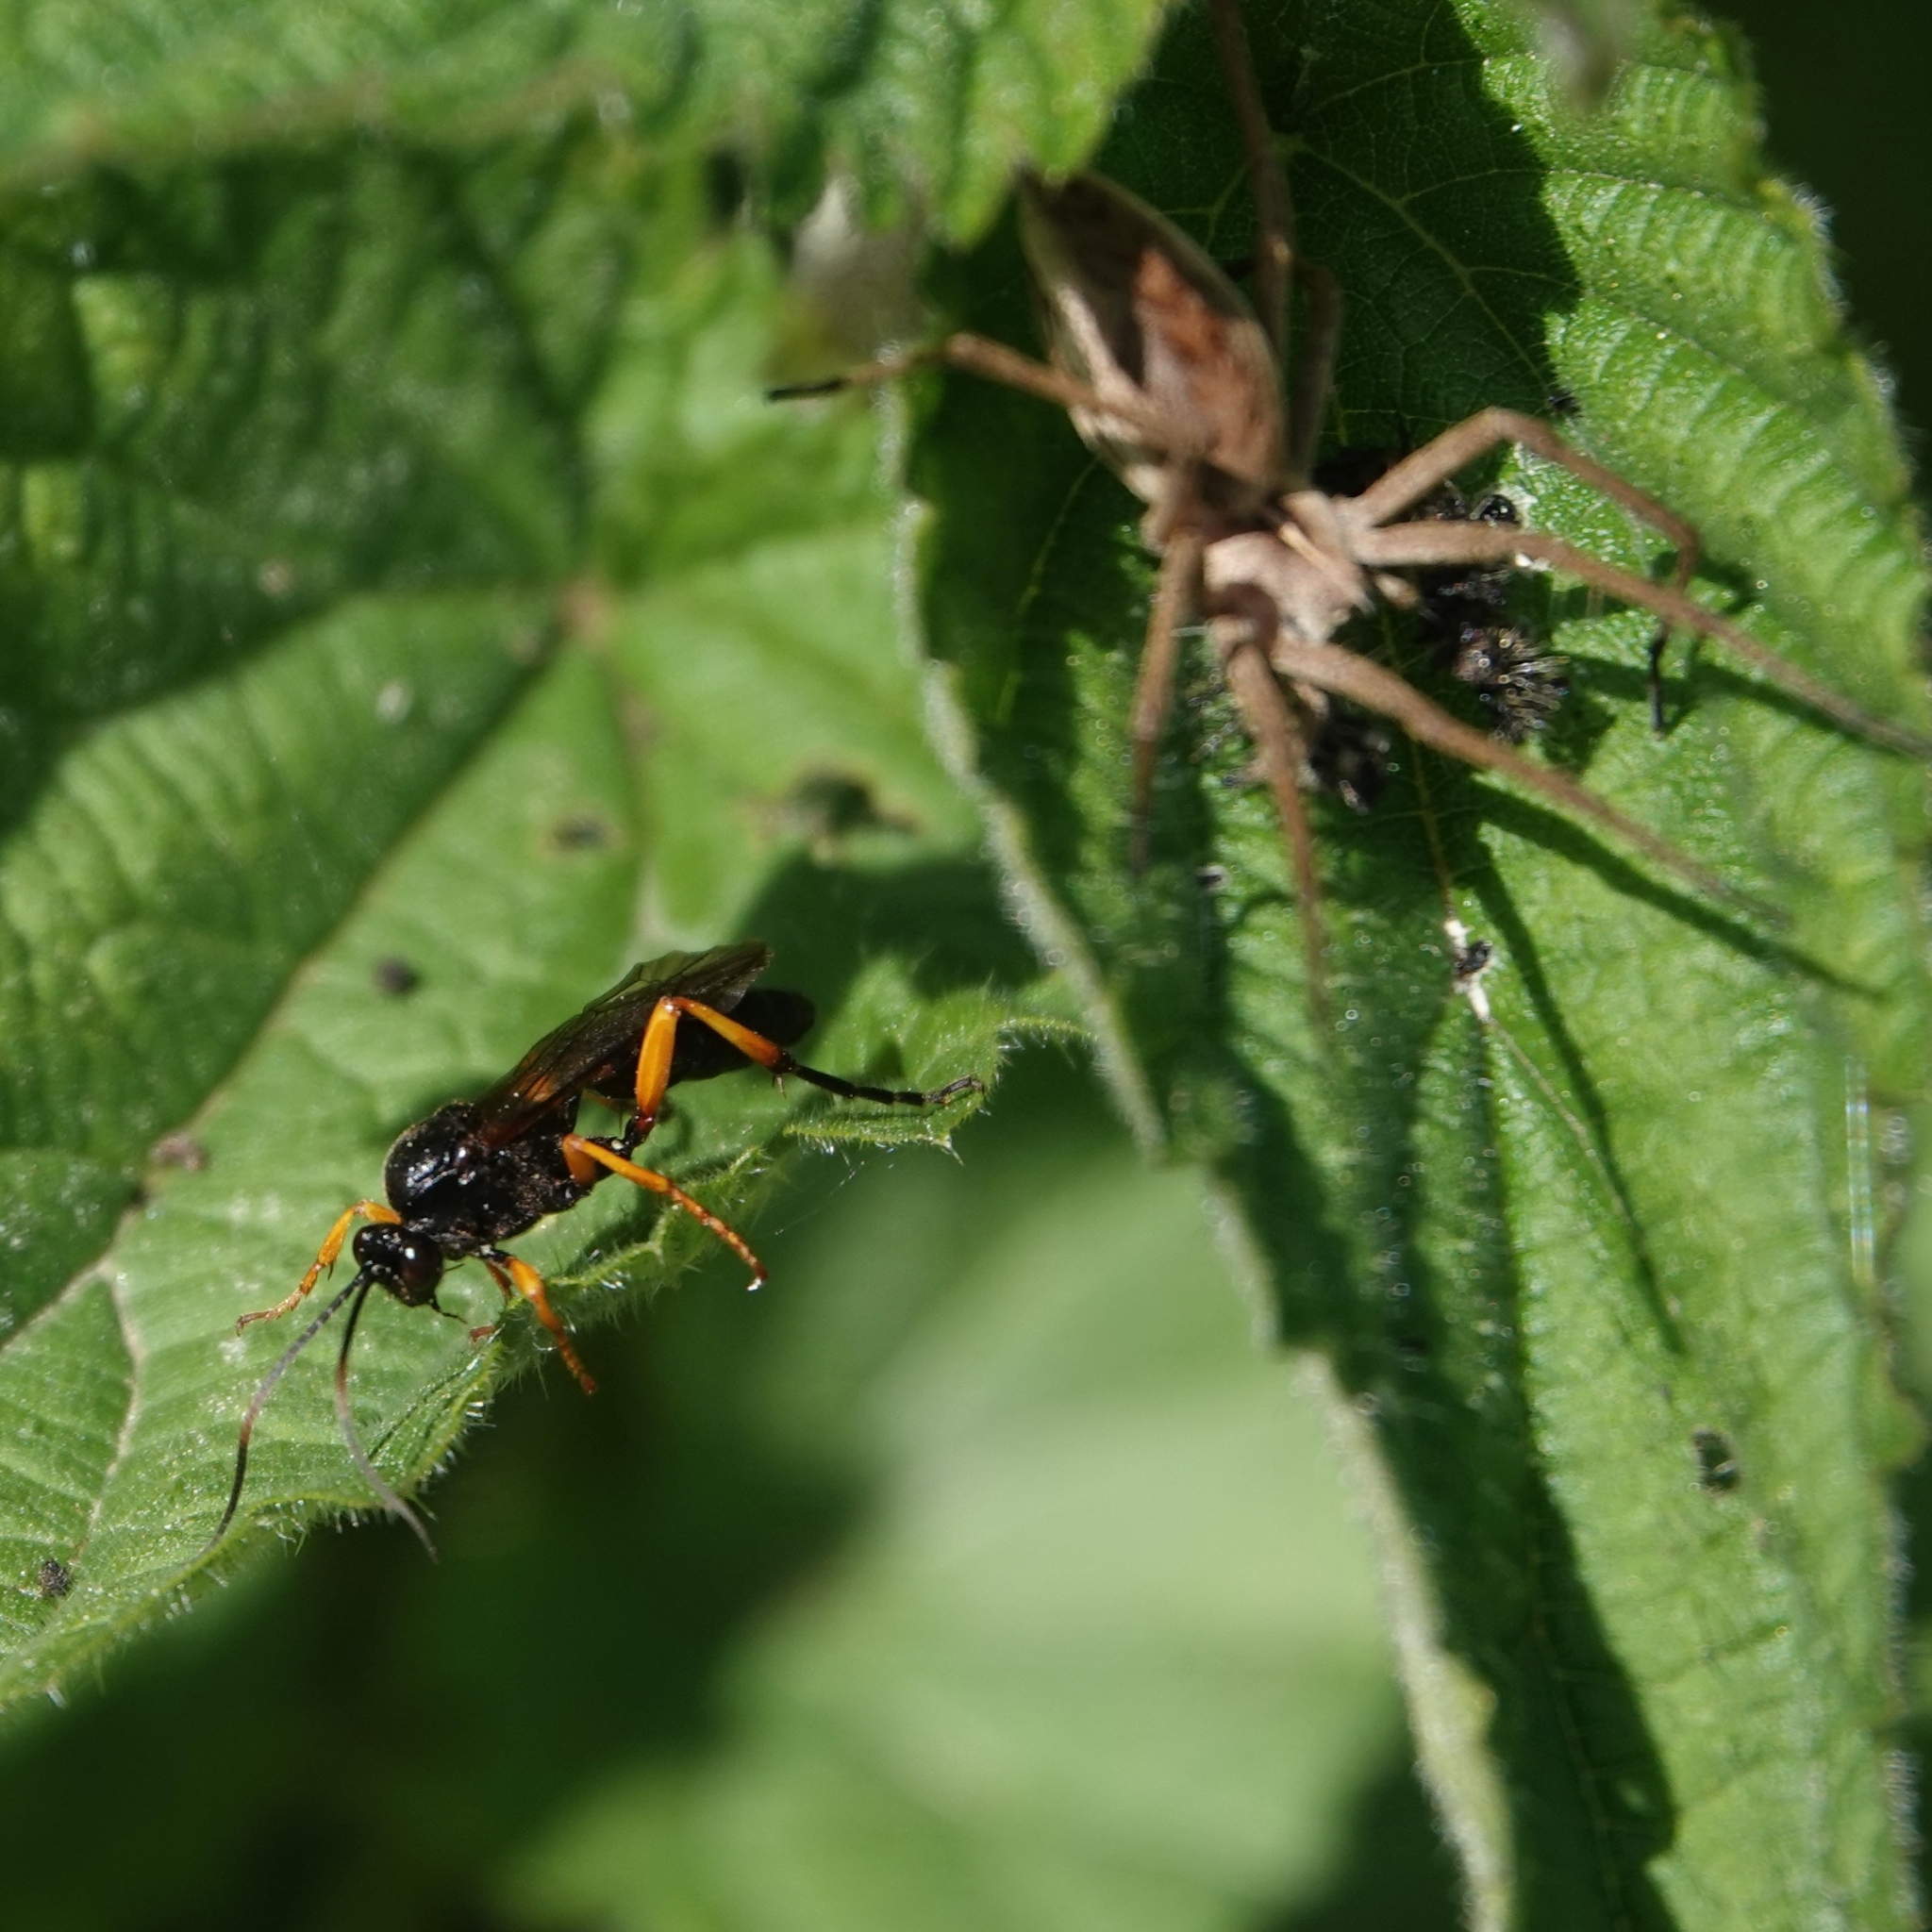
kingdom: Animalia
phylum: Arthropoda
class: Arachnida
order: Araneae
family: Pisauridae
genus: Pisaura
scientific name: Pisaura mirabilis
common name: Tent spider
